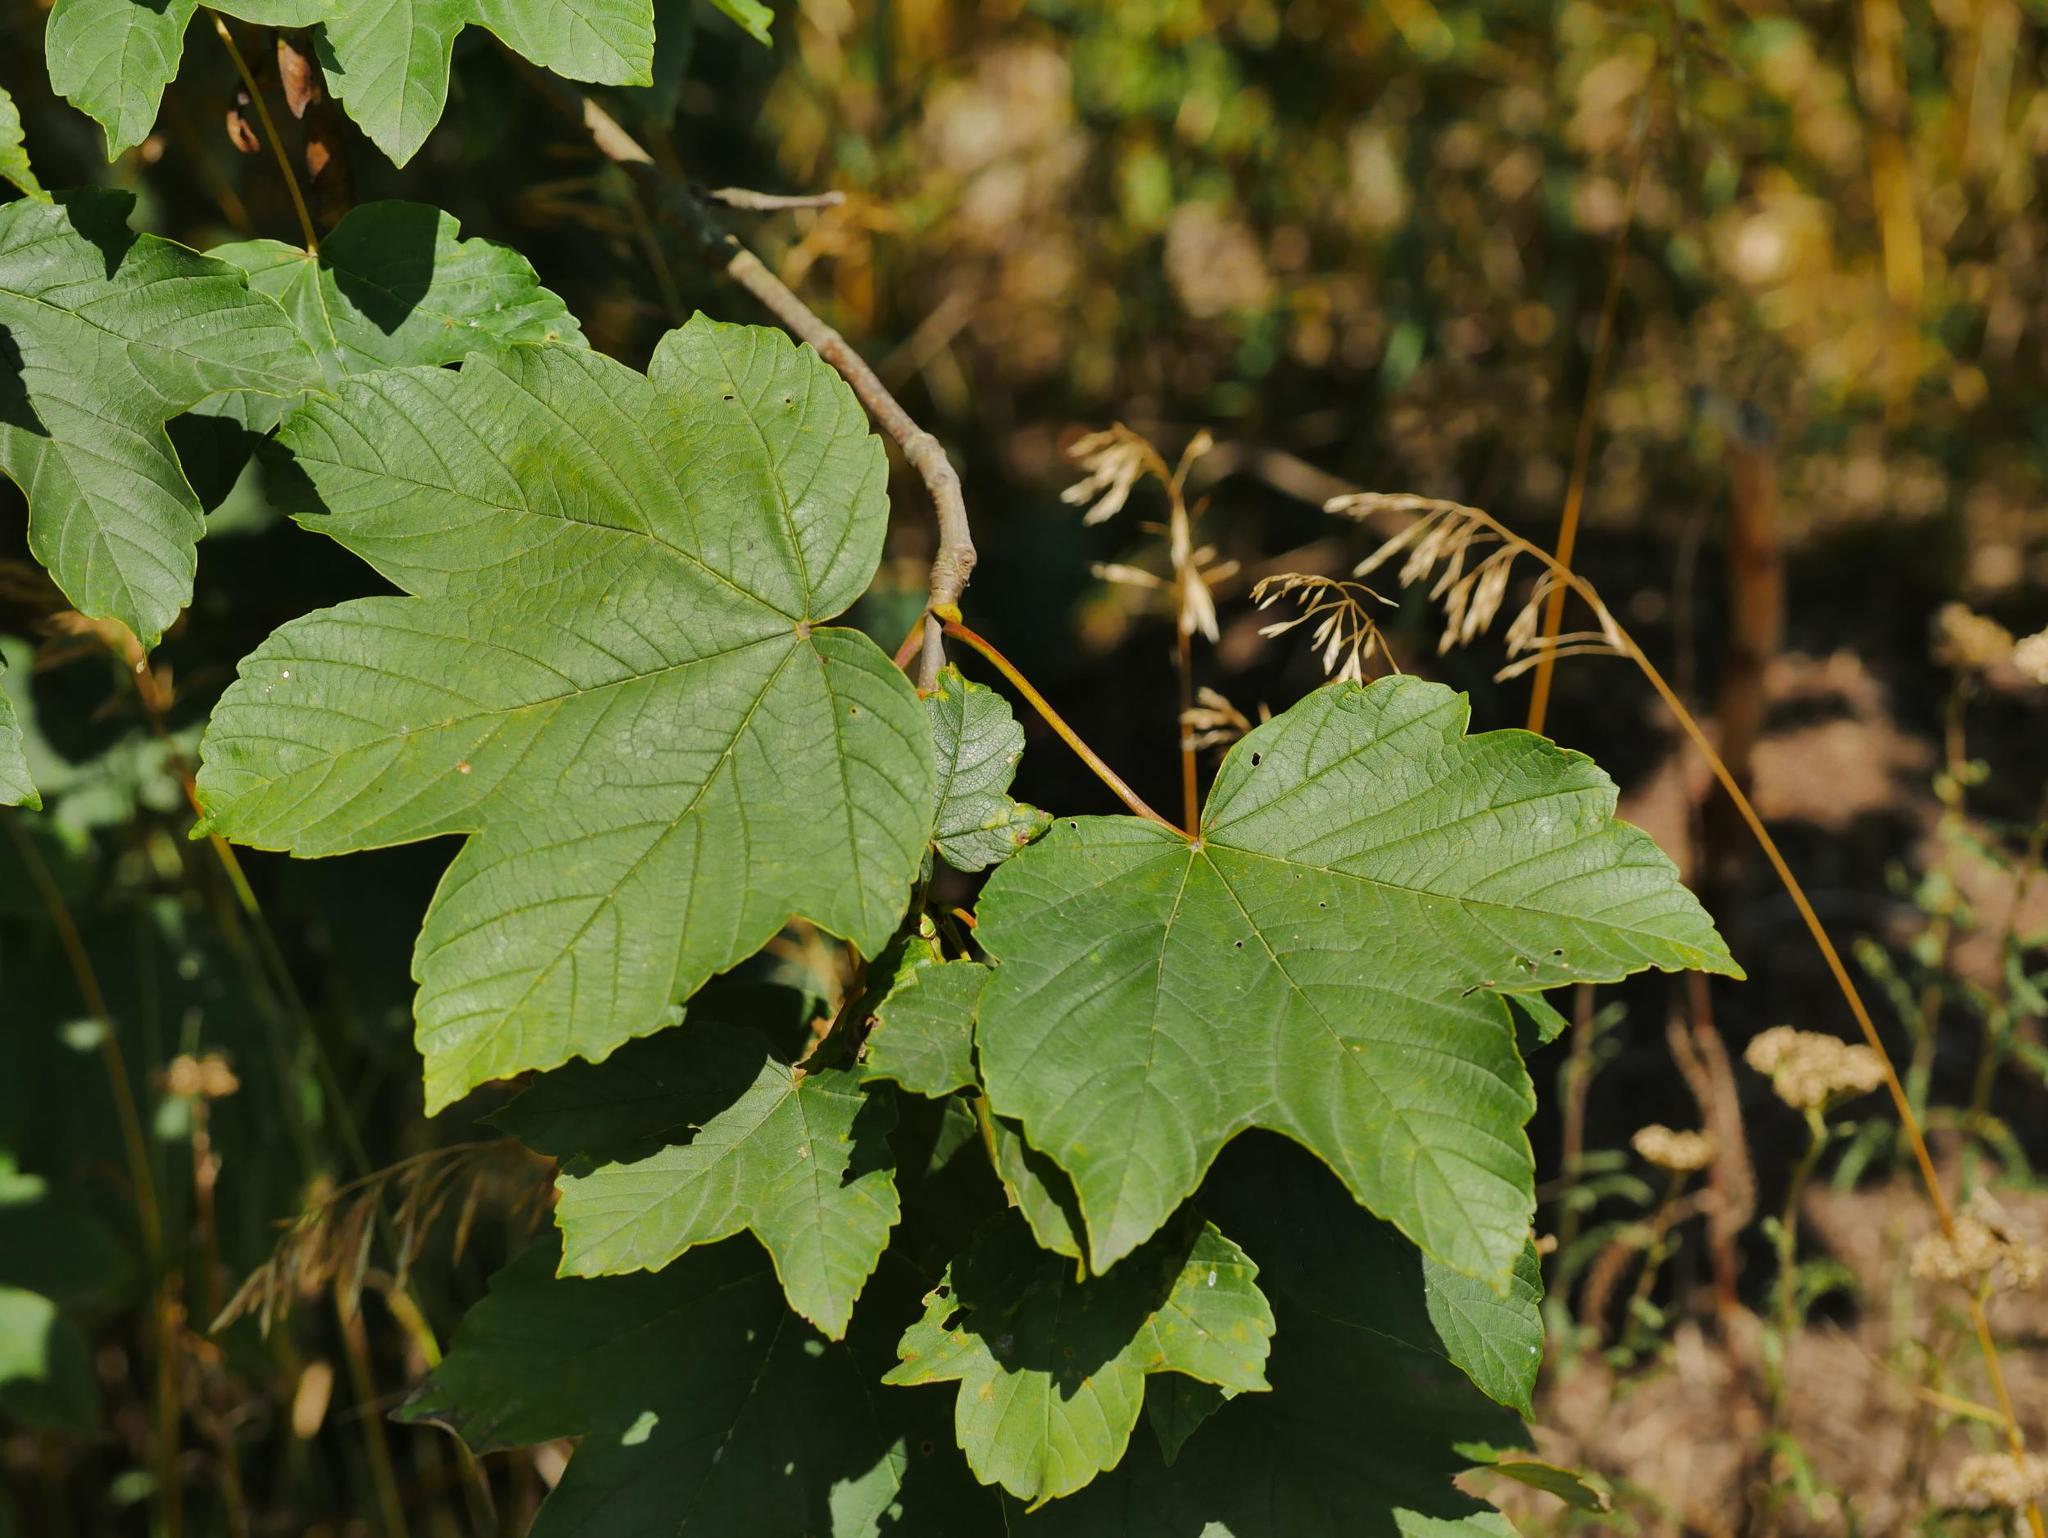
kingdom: Plantae
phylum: Tracheophyta
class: Magnoliopsida
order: Sapindales
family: Sapindaceae
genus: Acer
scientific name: Acer pseudoplatanus
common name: Sycamore
